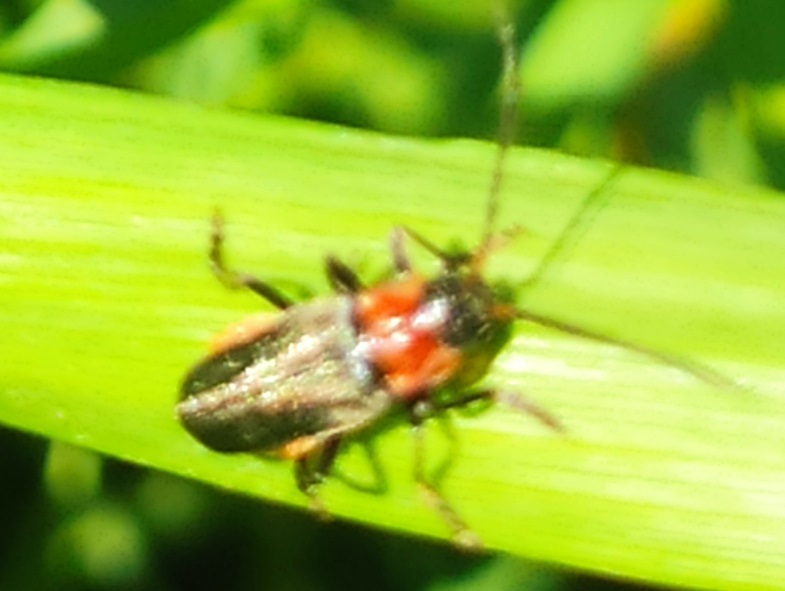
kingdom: Animalia
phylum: Arthropoda
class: Insecta
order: Coleoptera
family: Cantharidae
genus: Cantharis
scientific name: Cantharis reichei
